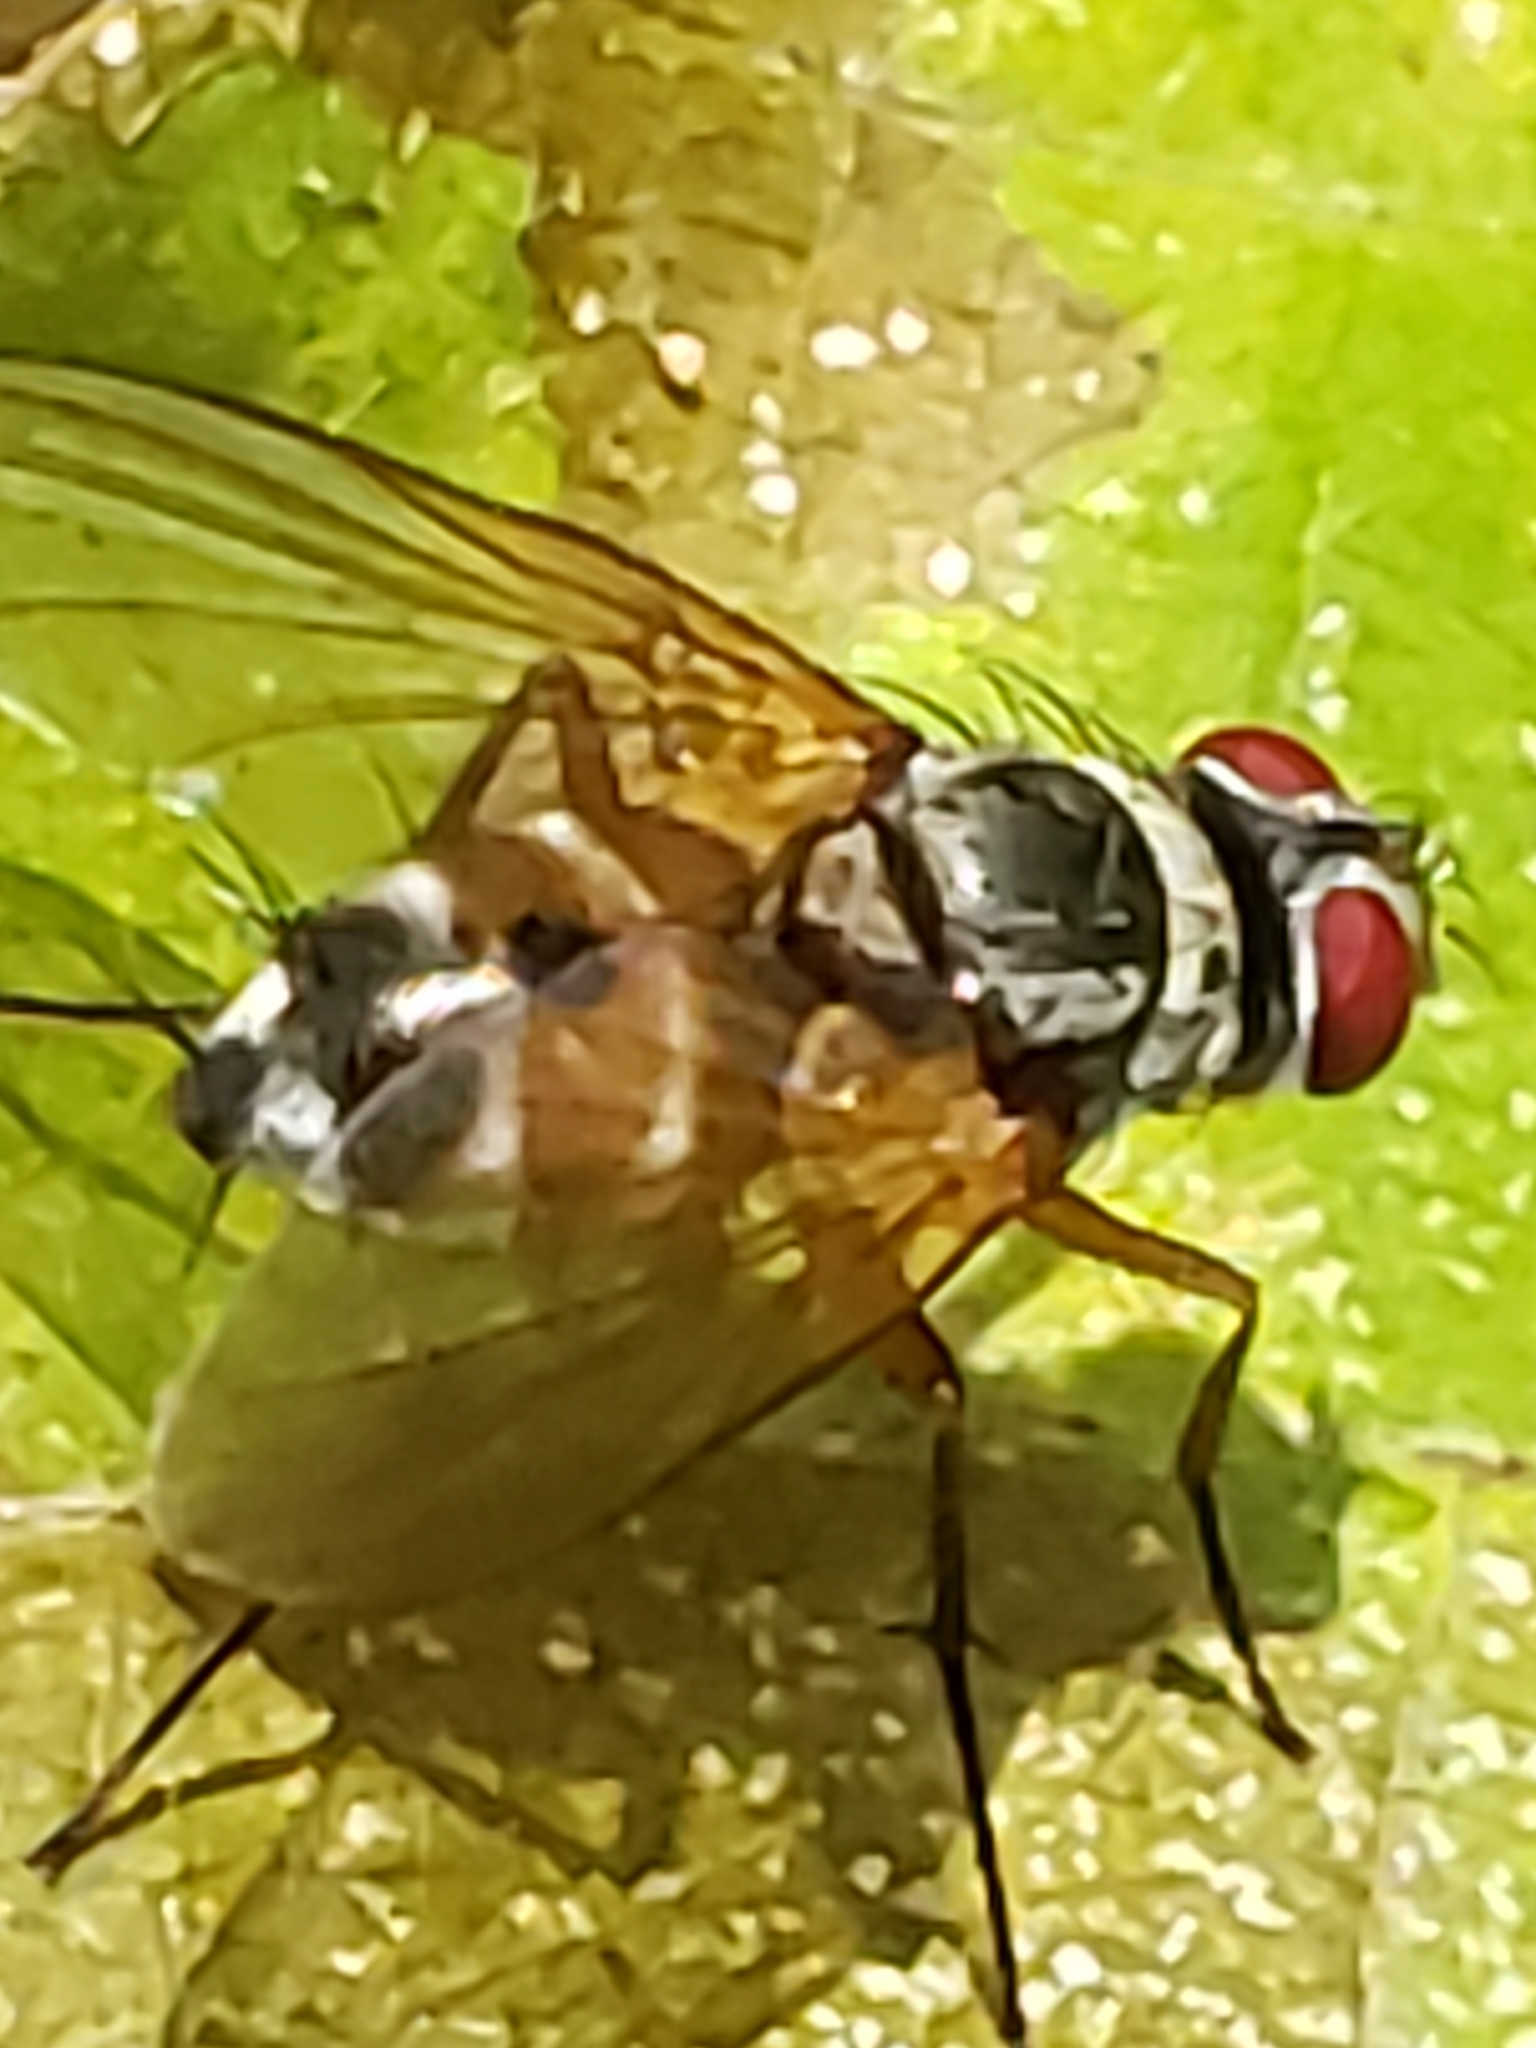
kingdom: Animalia
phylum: Arthropoda
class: Insecta
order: Diptera
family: Tachinidae
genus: Cholomyia
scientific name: Cholomyia inaequipes
